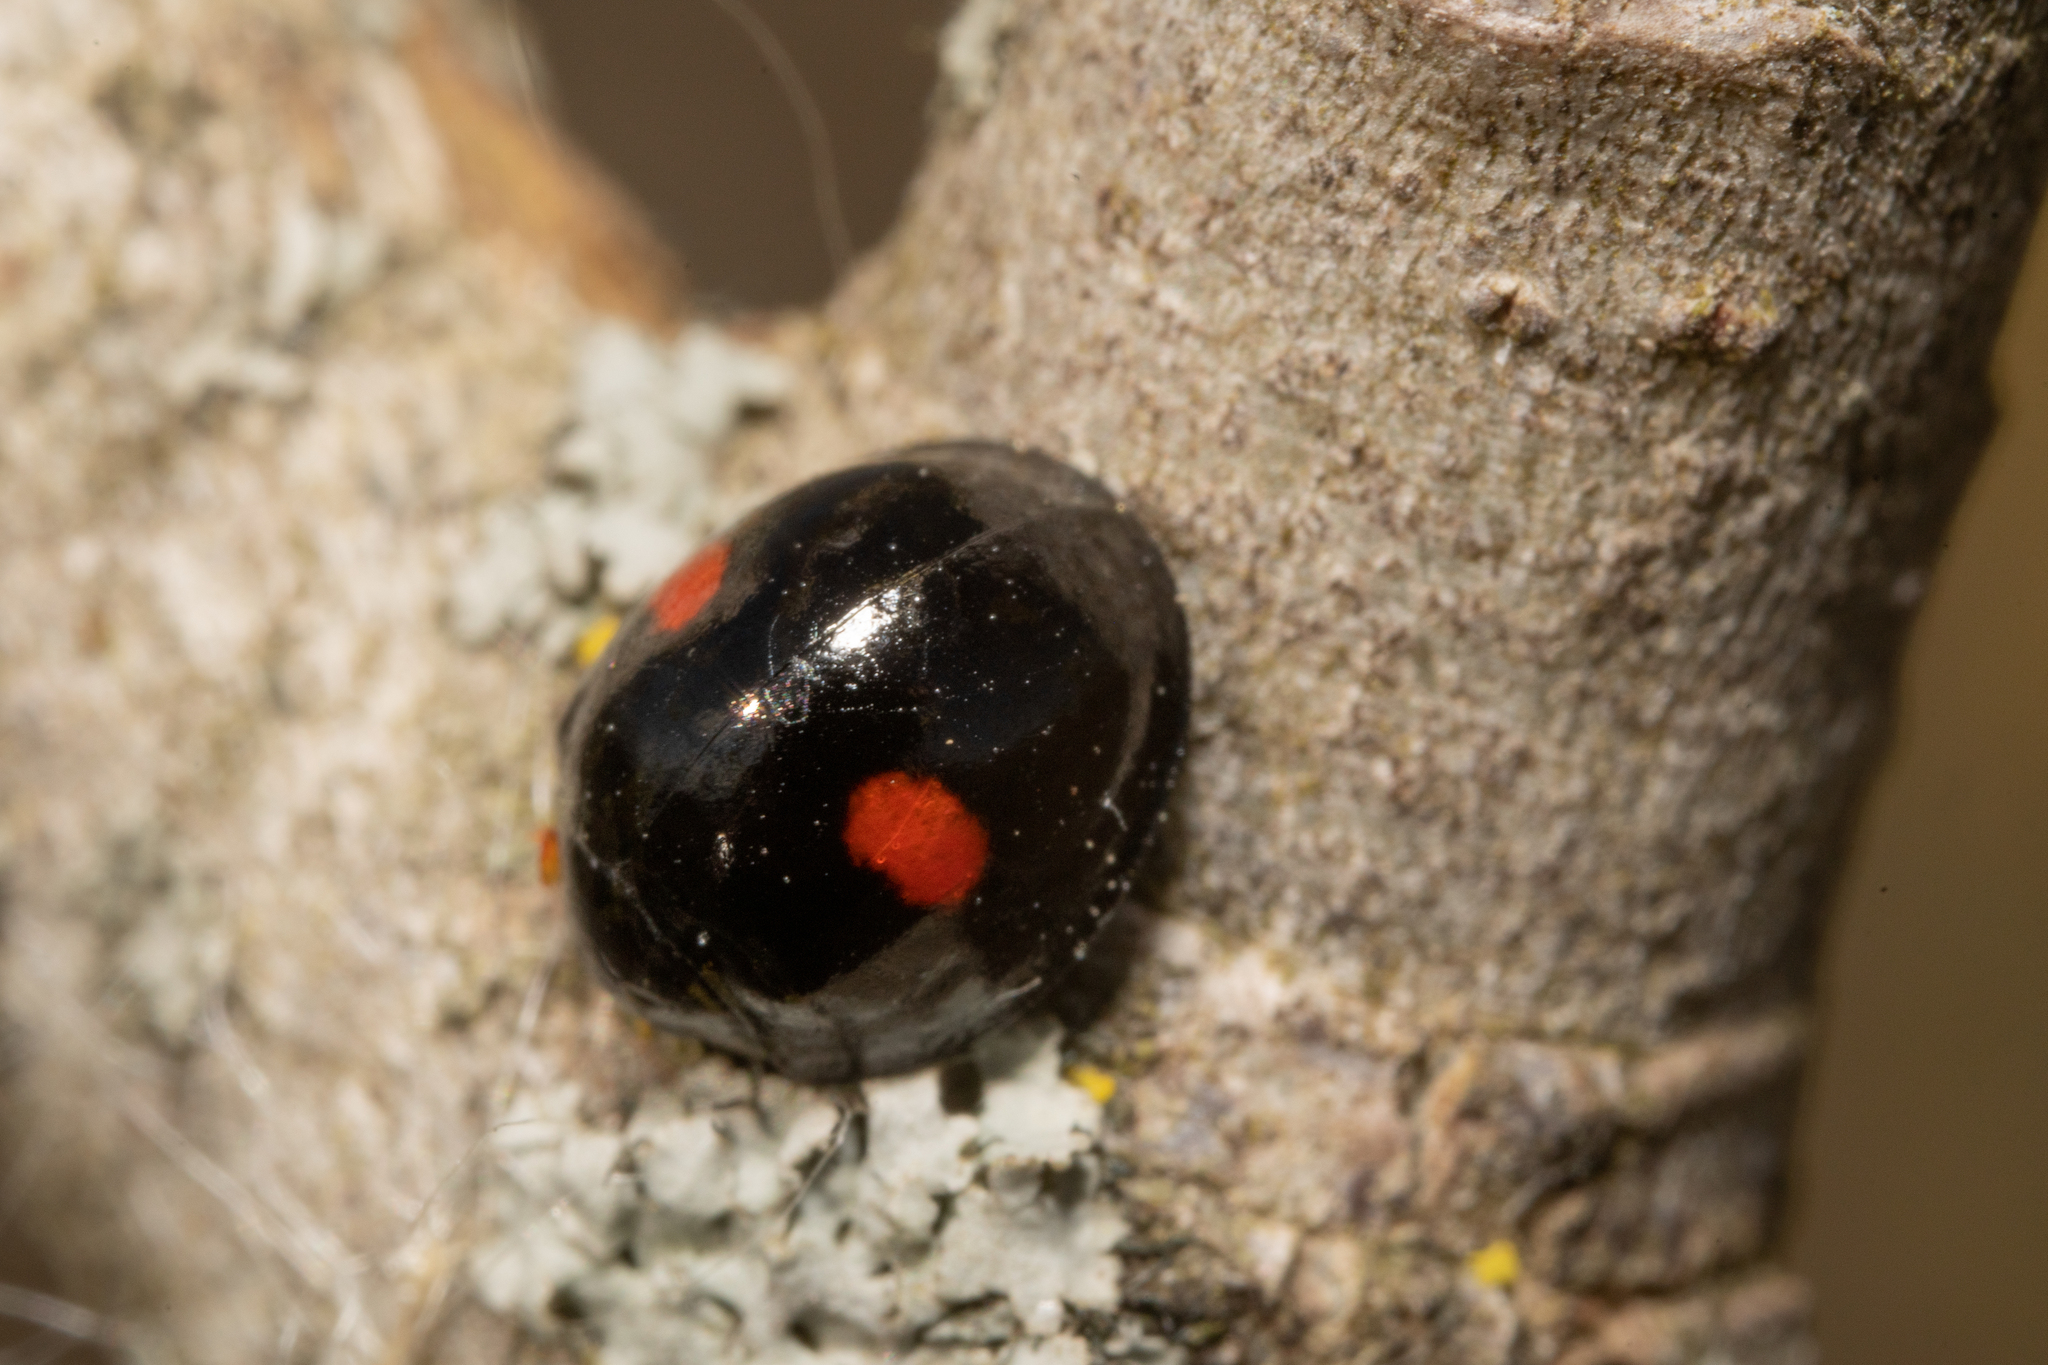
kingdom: Animalia
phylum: Arthropoda
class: Insecta
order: Coleoptera
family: Coccinellidae
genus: Chilocorus
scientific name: Chilocorus renipustulatus
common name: Kidney-spot ladybird
